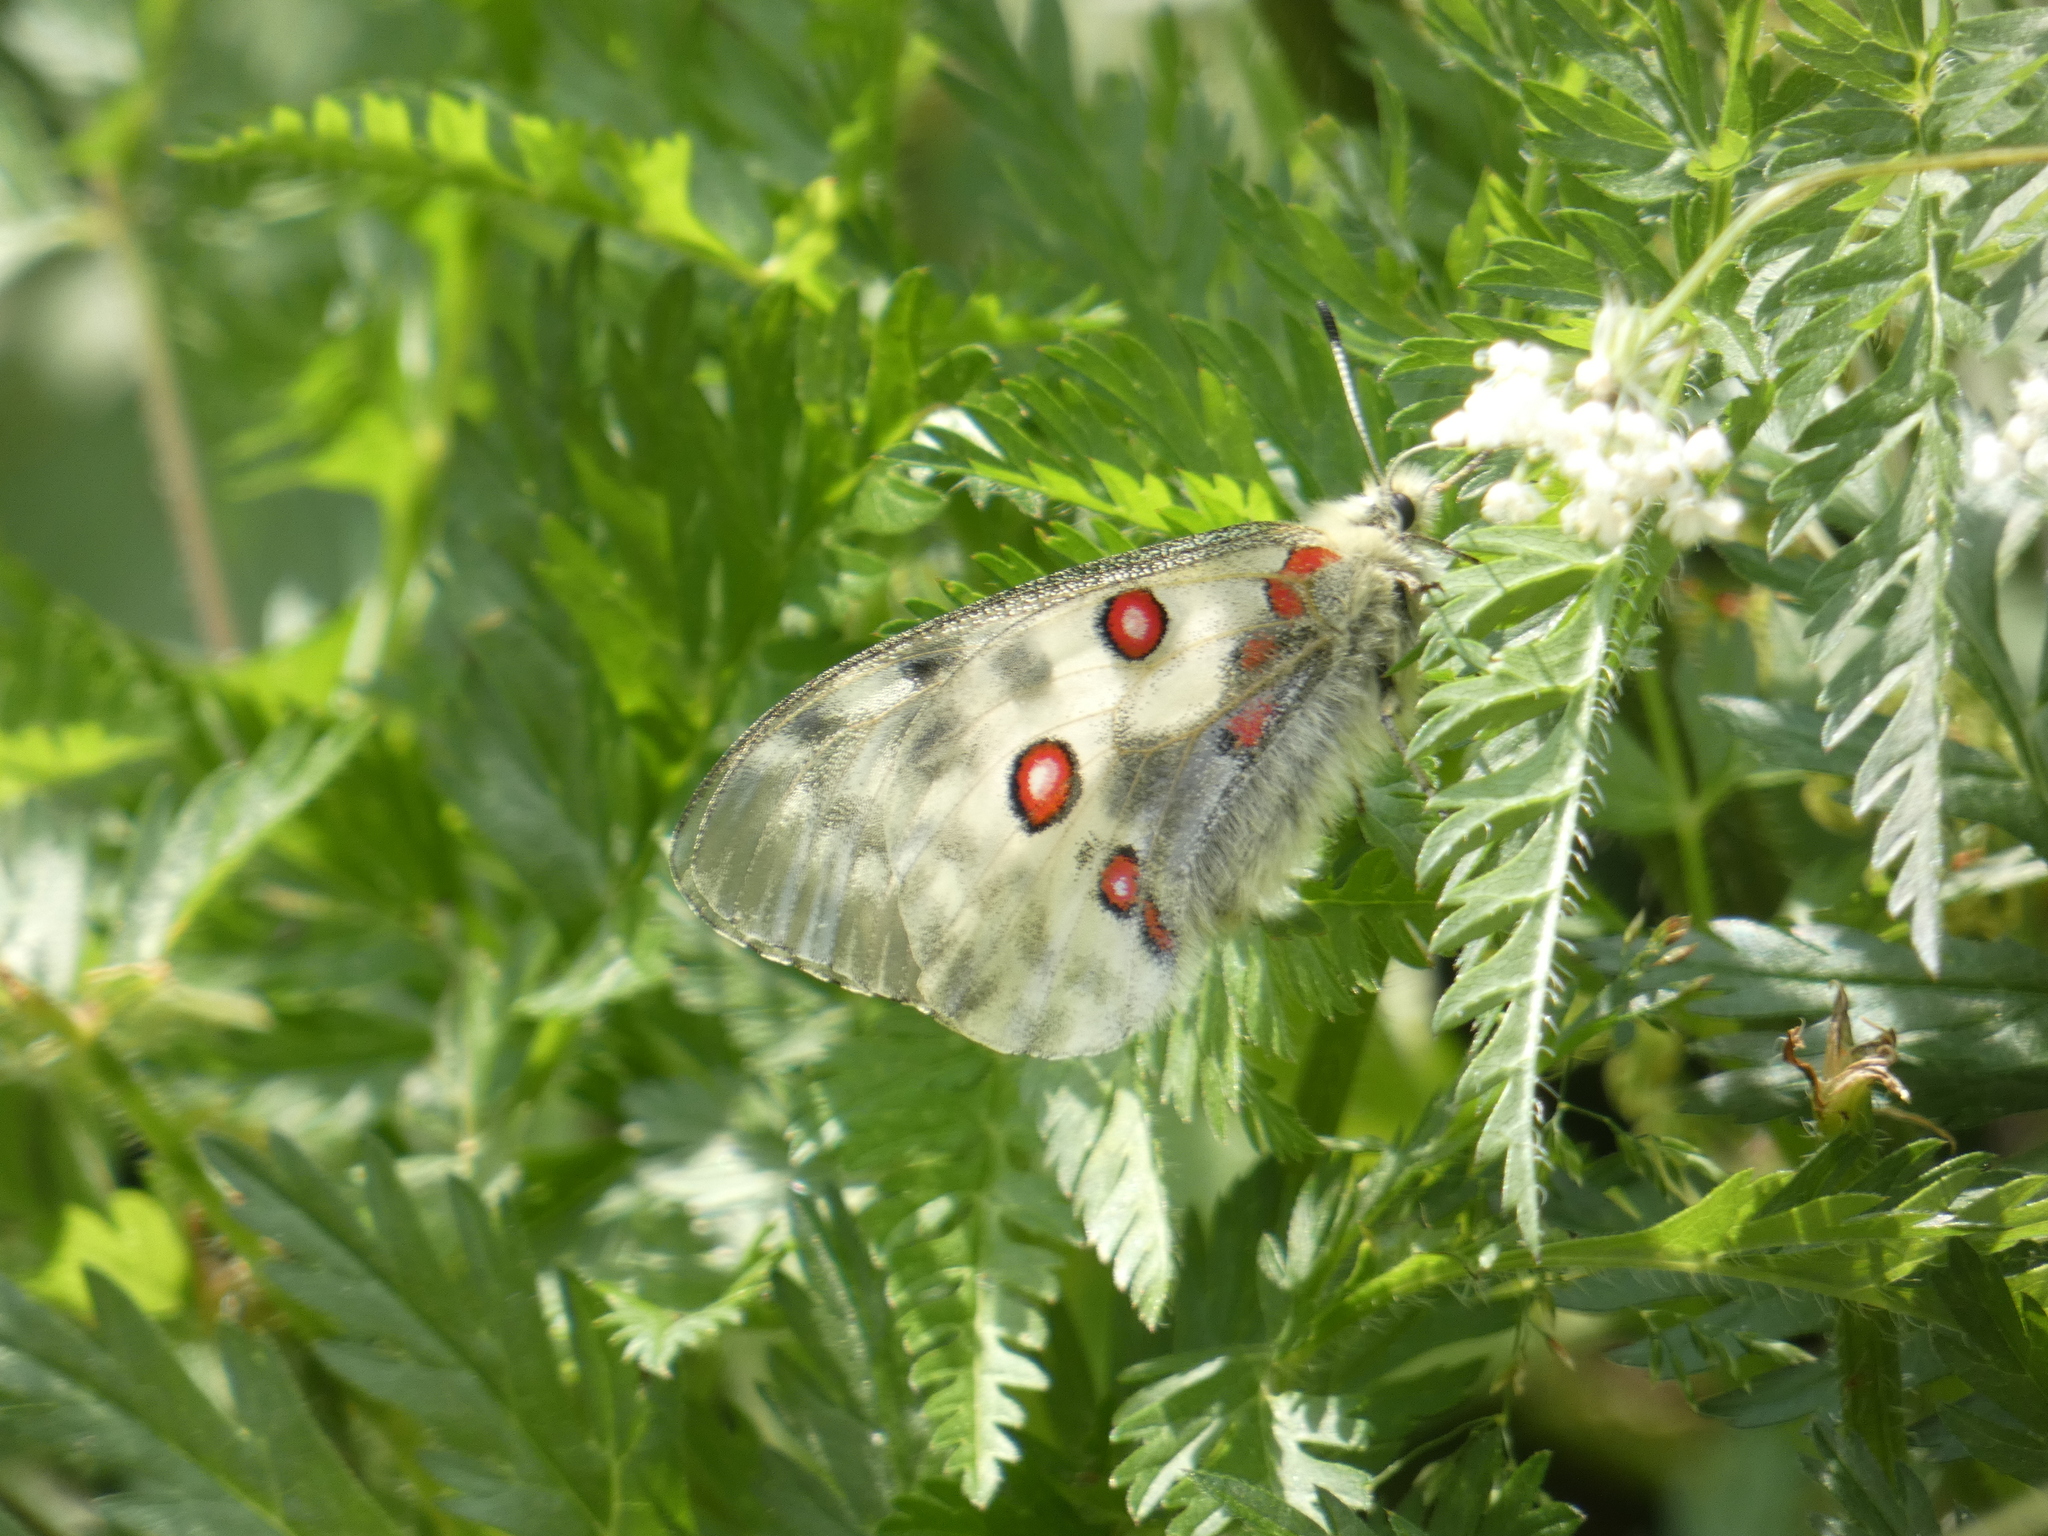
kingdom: Animalia
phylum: Arthropoda
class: Insecta
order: Lepidoptera
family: Papilionidae
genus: Parnassius
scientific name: Parnassius apollo
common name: Apollo
